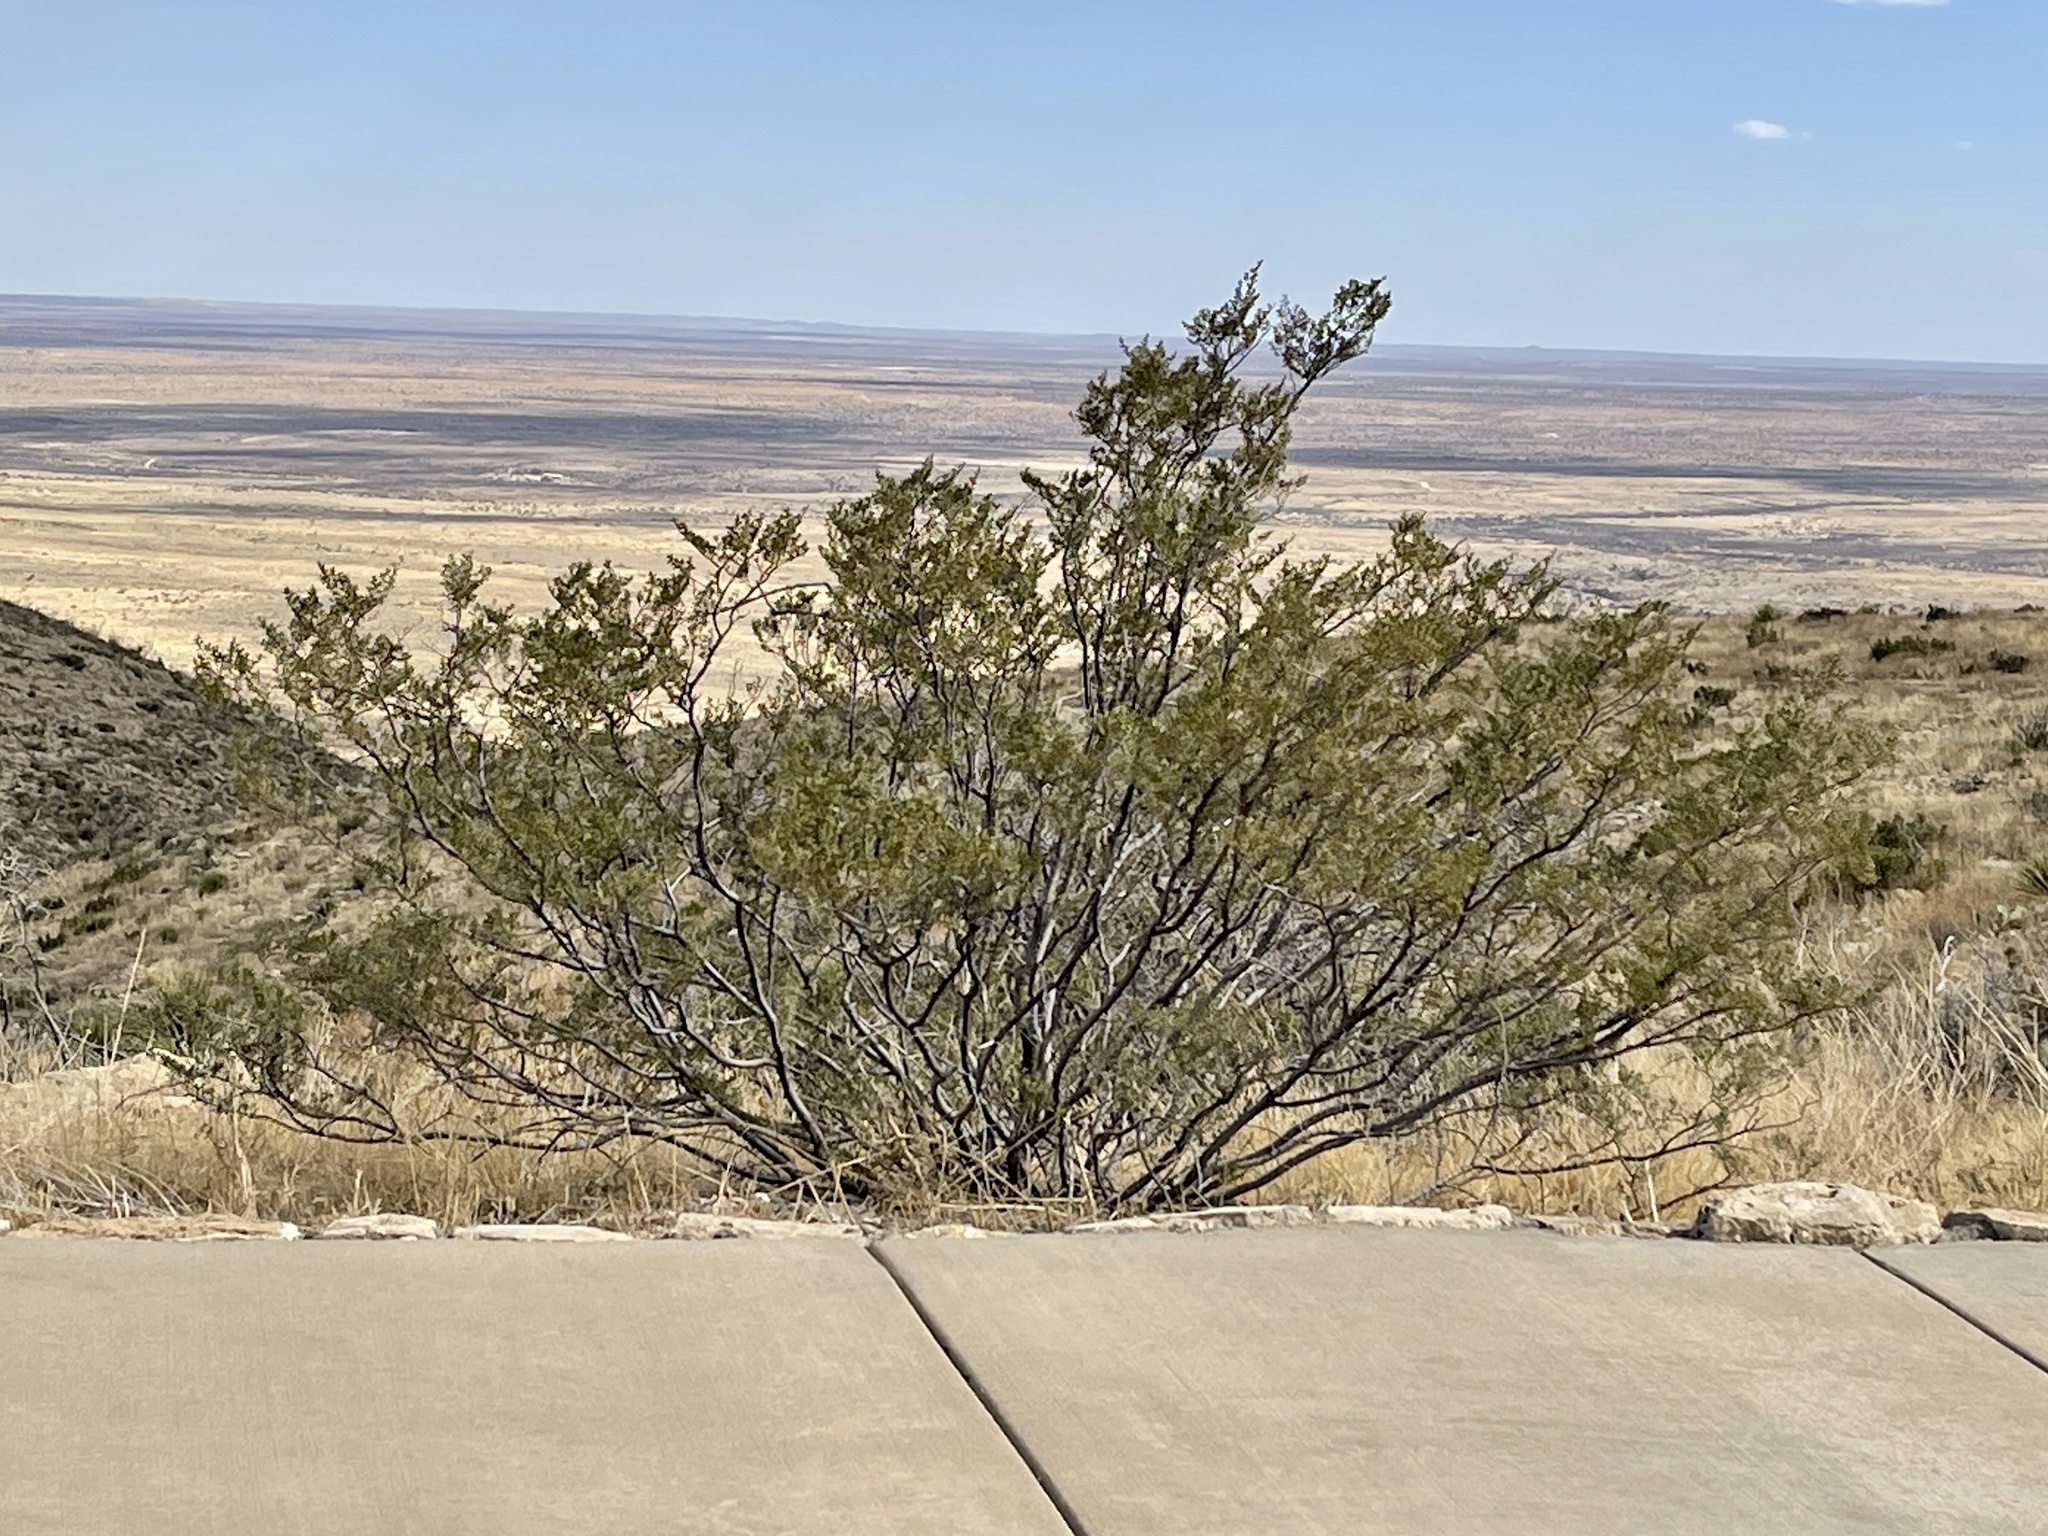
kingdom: Plantae
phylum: Tracheophyta
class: Magnoliopsida
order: Zygophyllales
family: Zygophyllaceae
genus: Larrea
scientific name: Larrea tridentata
